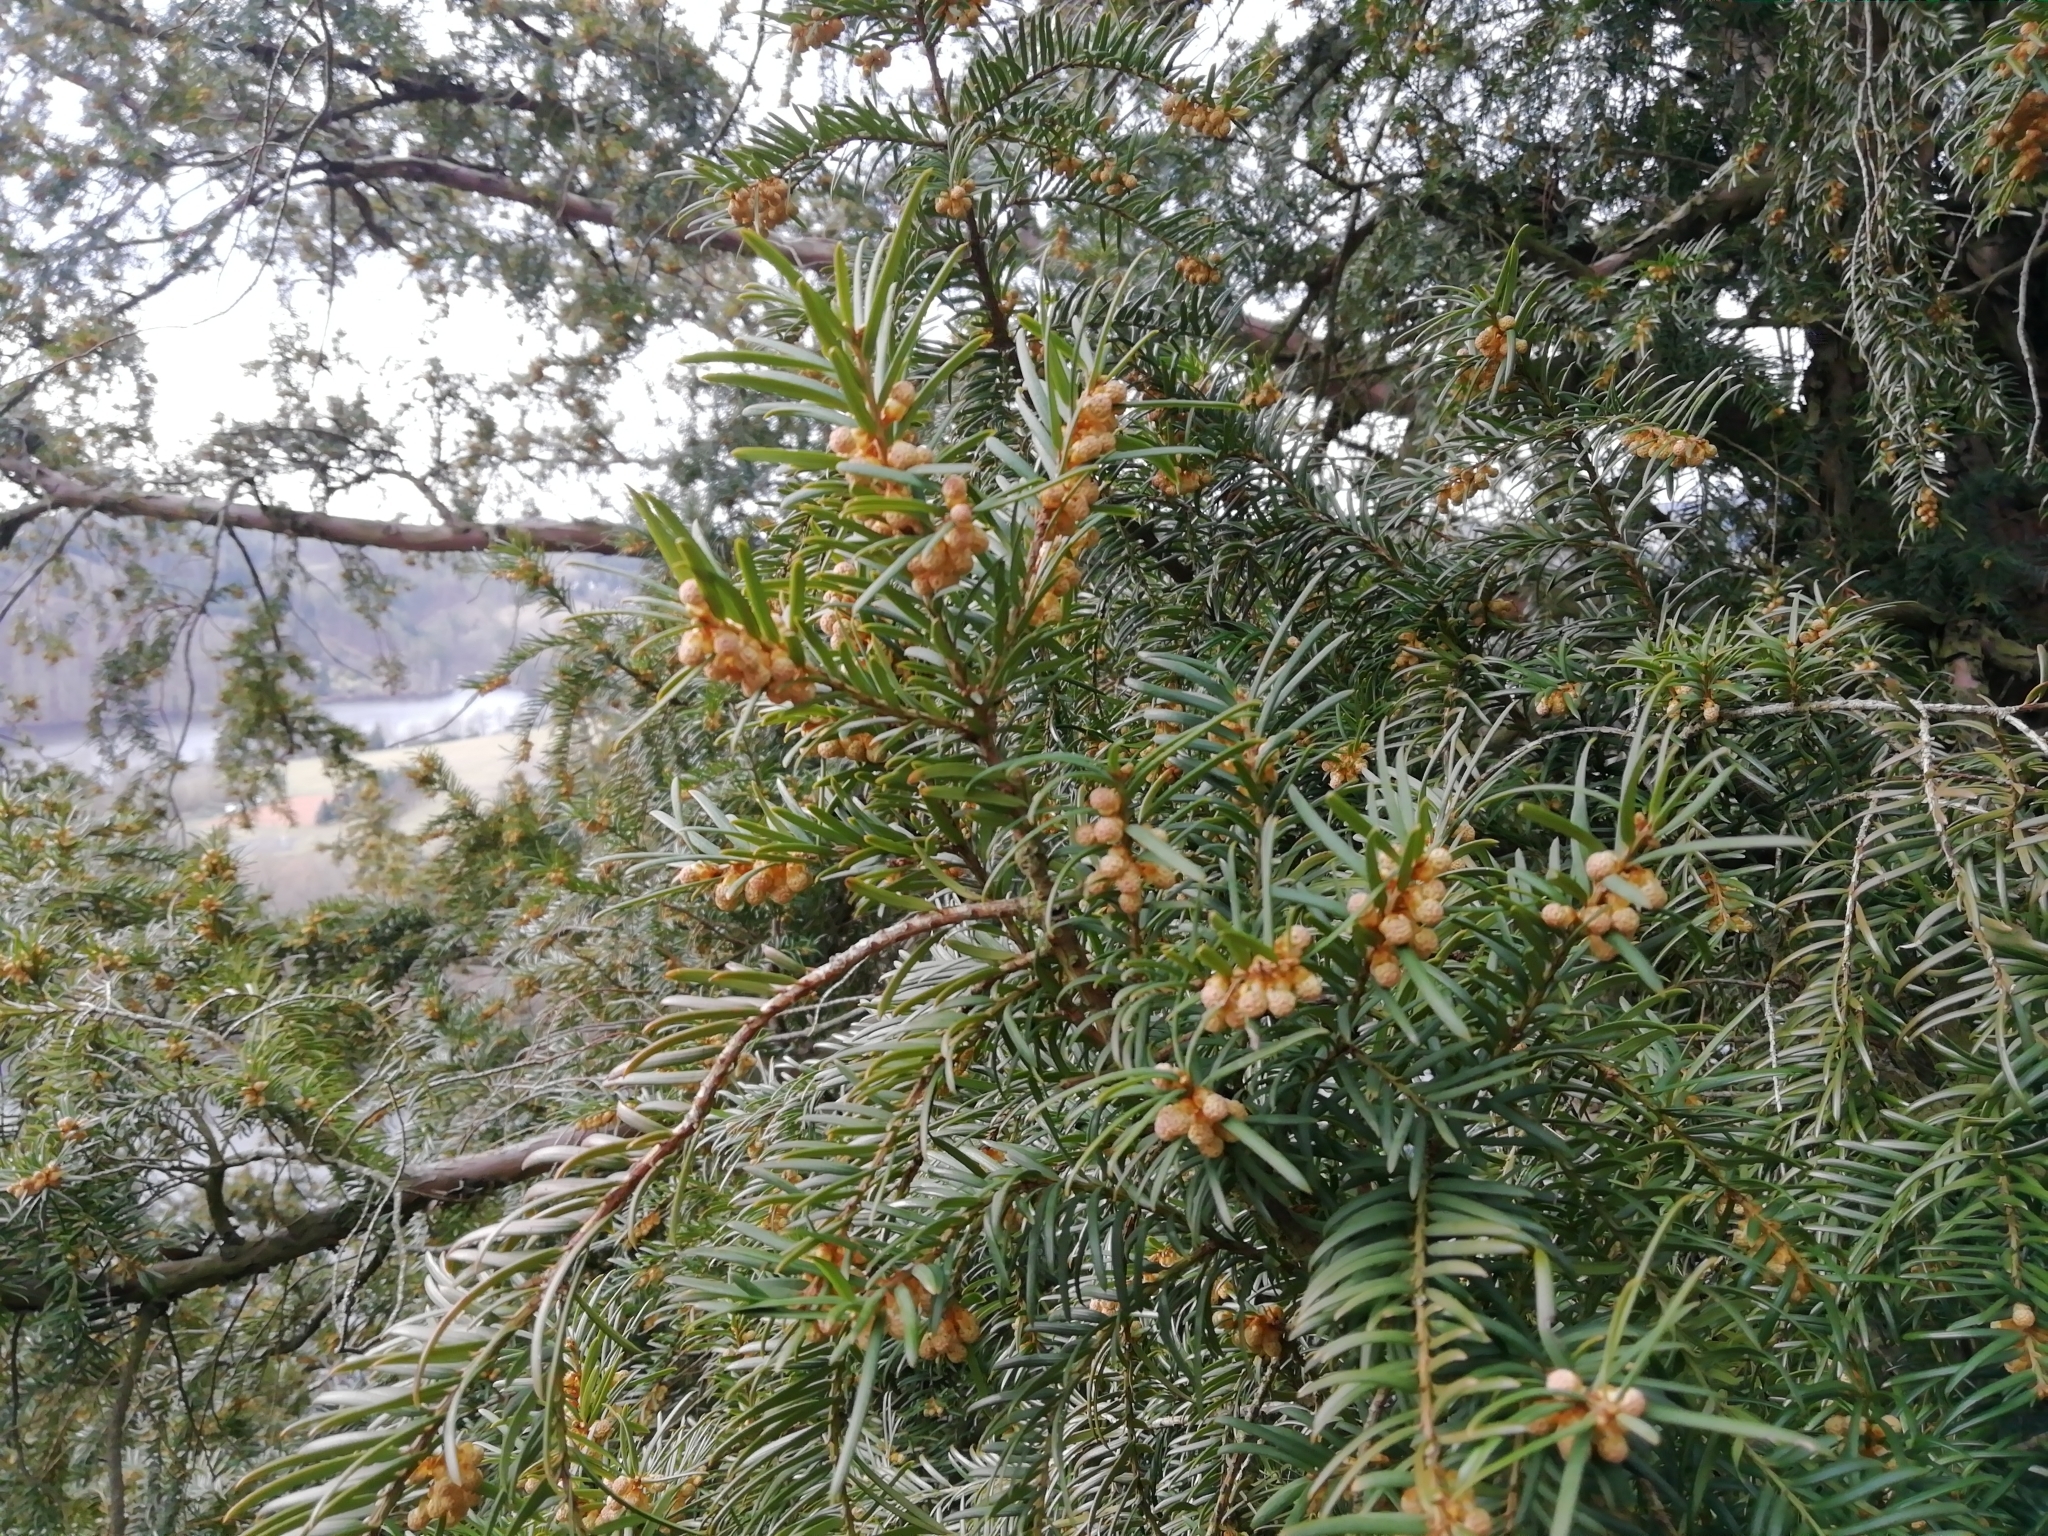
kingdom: Plantae
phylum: Tracheophyta
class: Pinopsida
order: Pinales
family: Taxaceae
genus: Taxus
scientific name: Taxus baccata
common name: Yew
